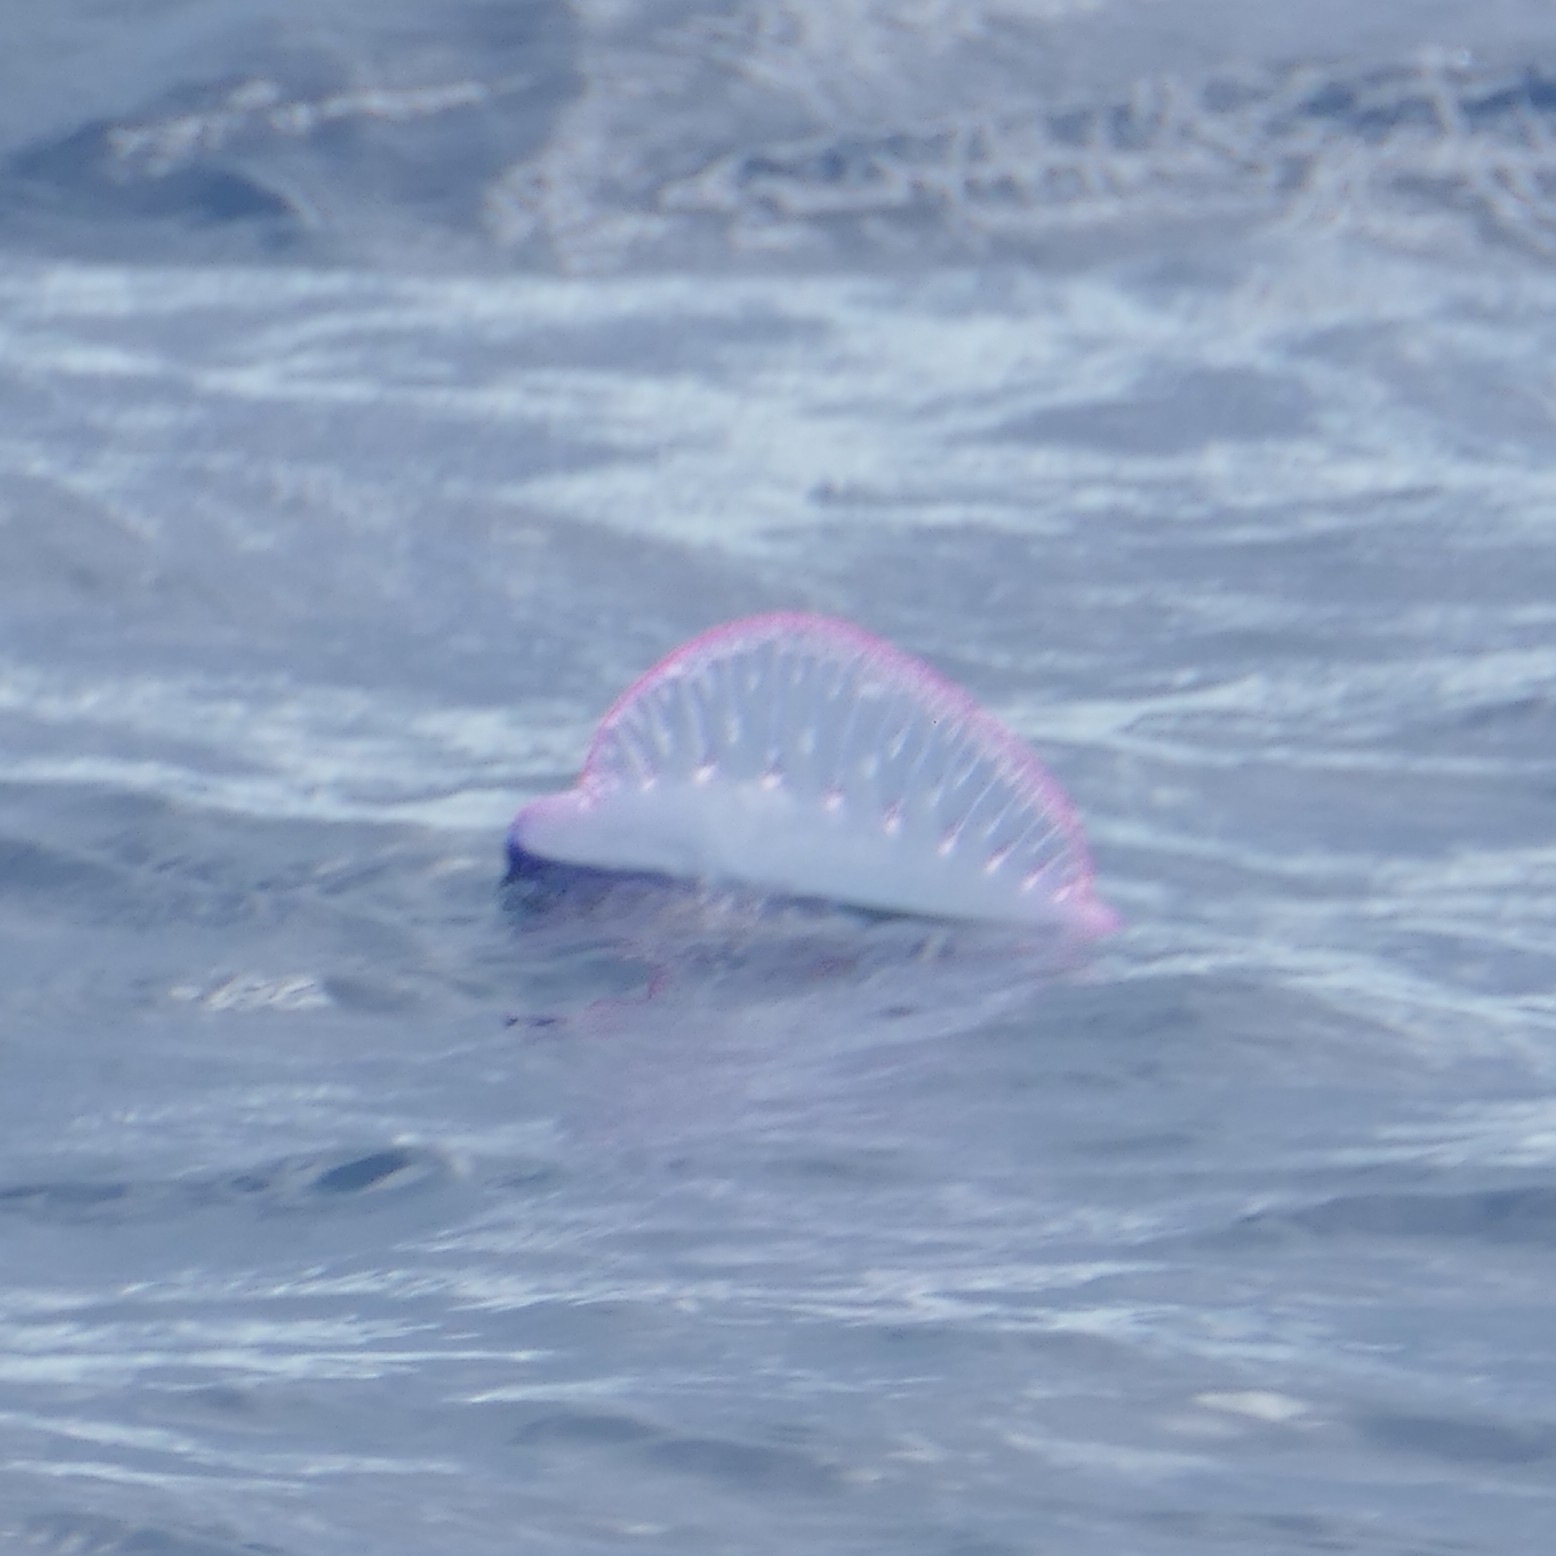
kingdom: Animalia
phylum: Cnidaria
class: Hydrozoa
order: Siphonophorae
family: Physaliidae
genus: Physalia
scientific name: Physalia physalis
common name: Portuguese man-of-war
